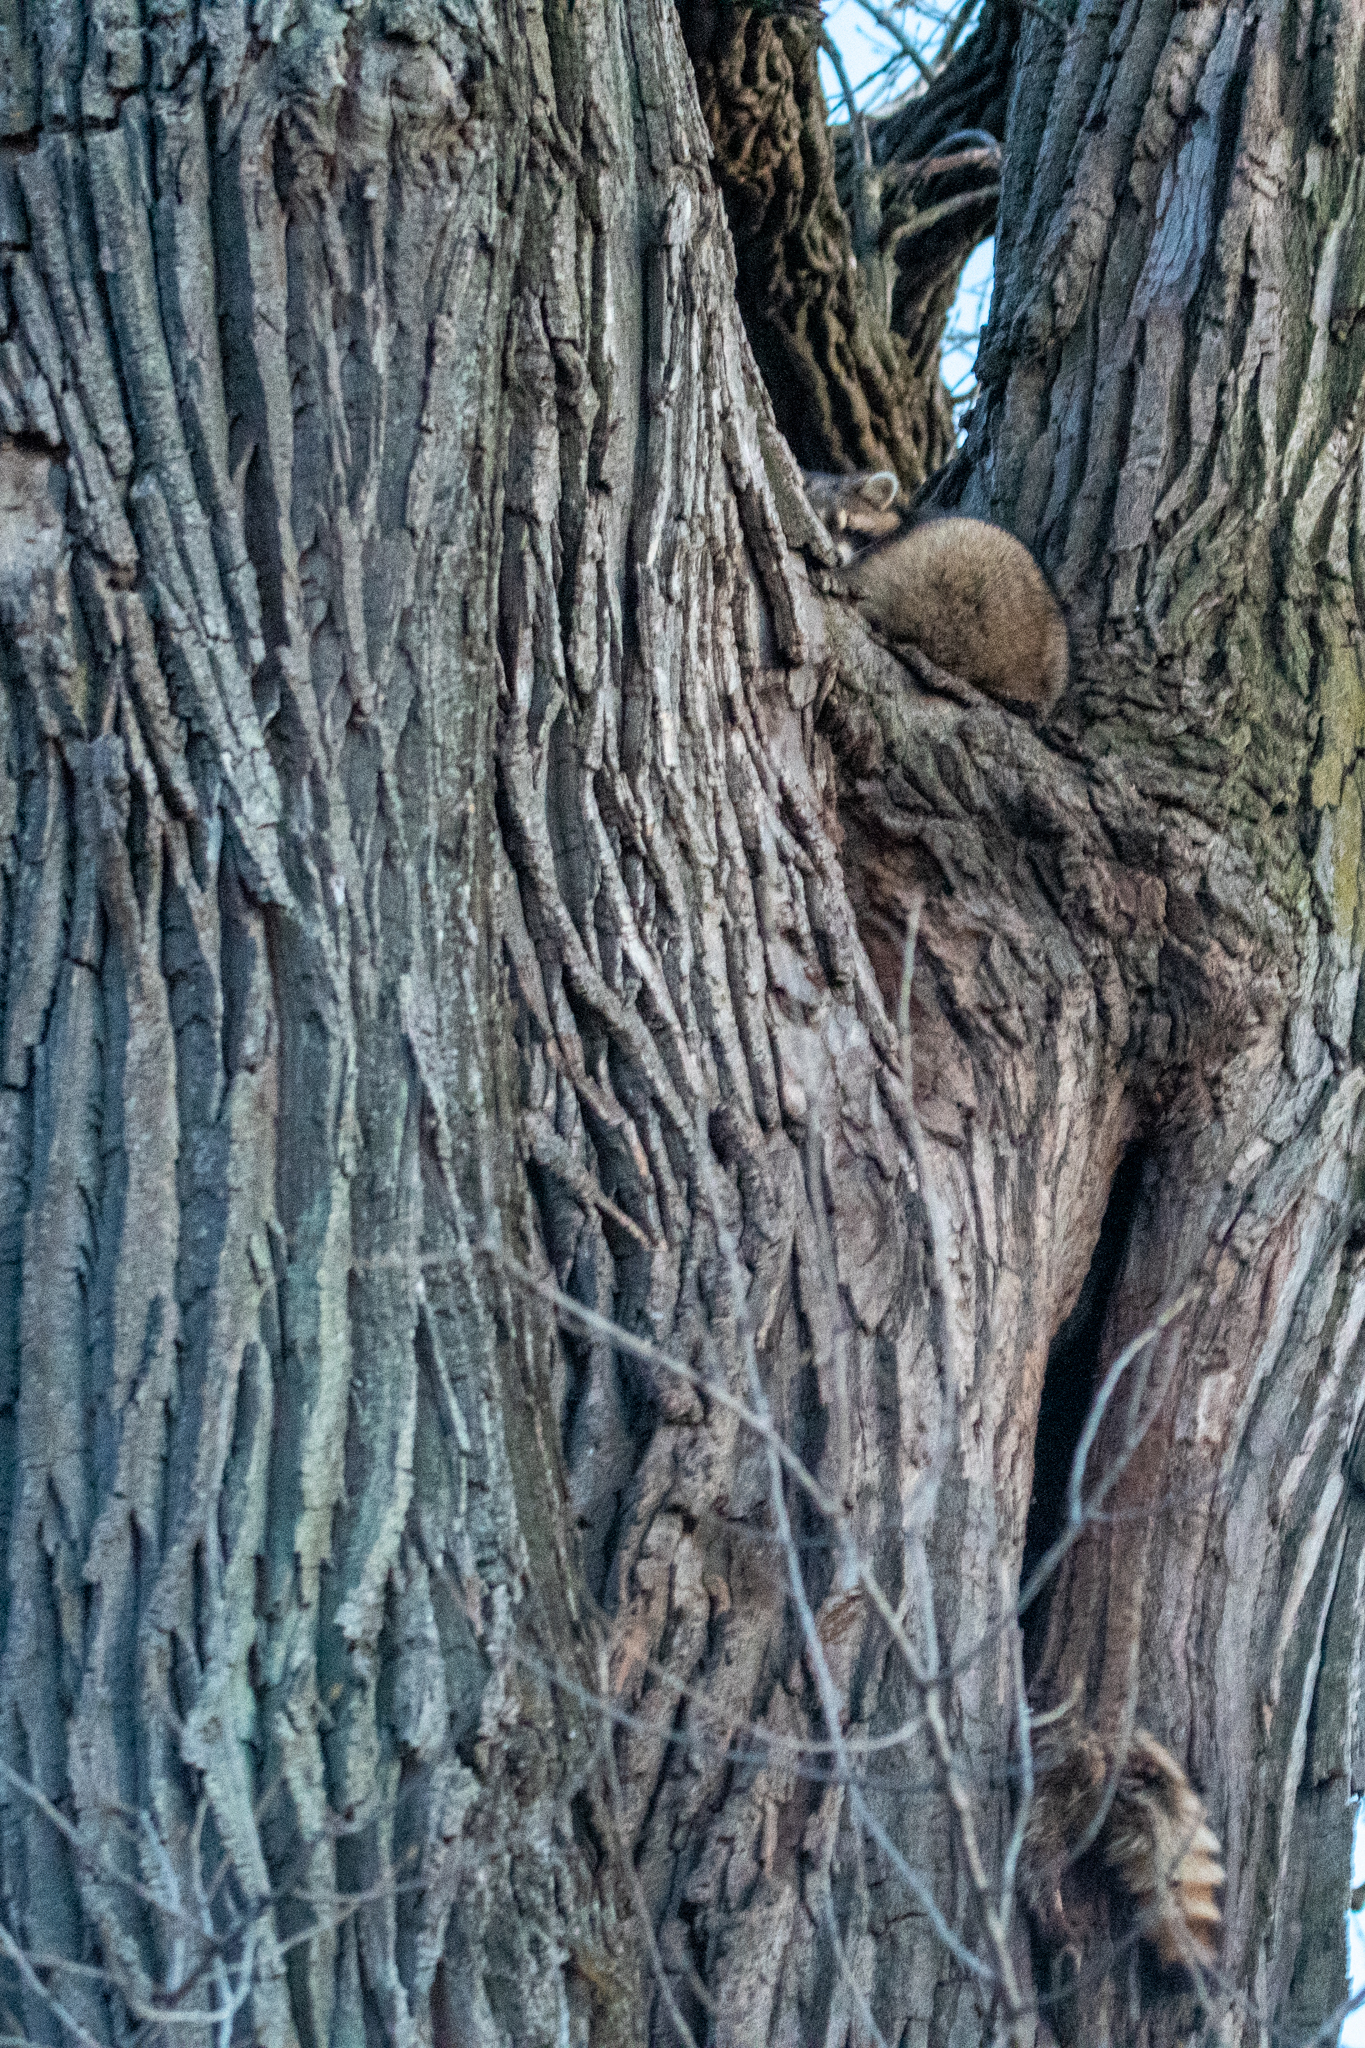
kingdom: Animalia
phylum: Chordata
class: Mammalia
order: Carnivora
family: Procyonidae
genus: Procyon
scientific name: Procyon lotor
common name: Raccoon
